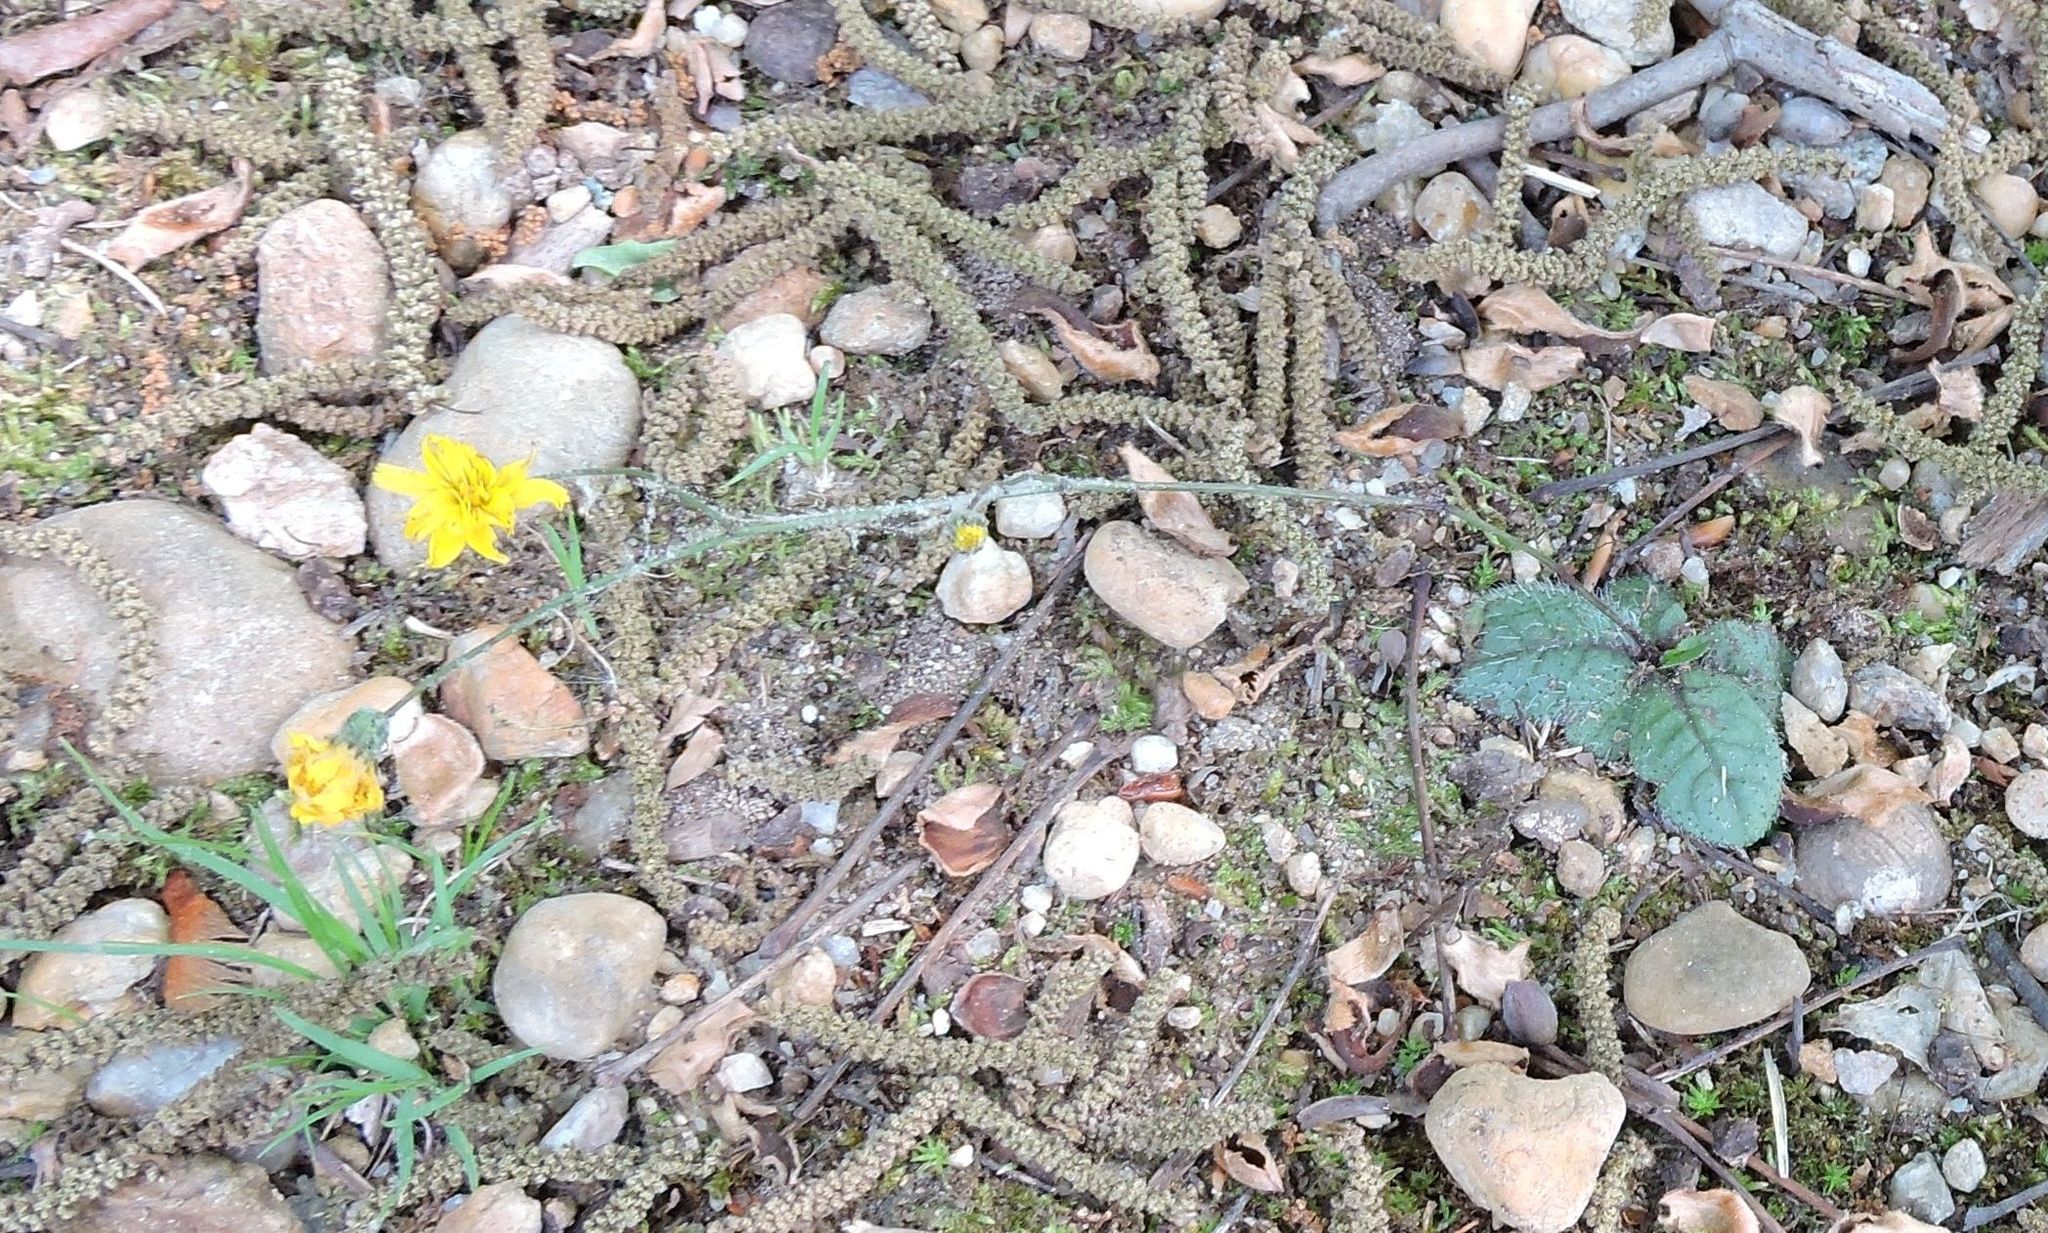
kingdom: Plantae
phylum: Tracheophyta
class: Magnoliopsida
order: Asterales
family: Asteraceae
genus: Hieracium
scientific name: Hieracium venosum
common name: Rattlesnake hawkweed
